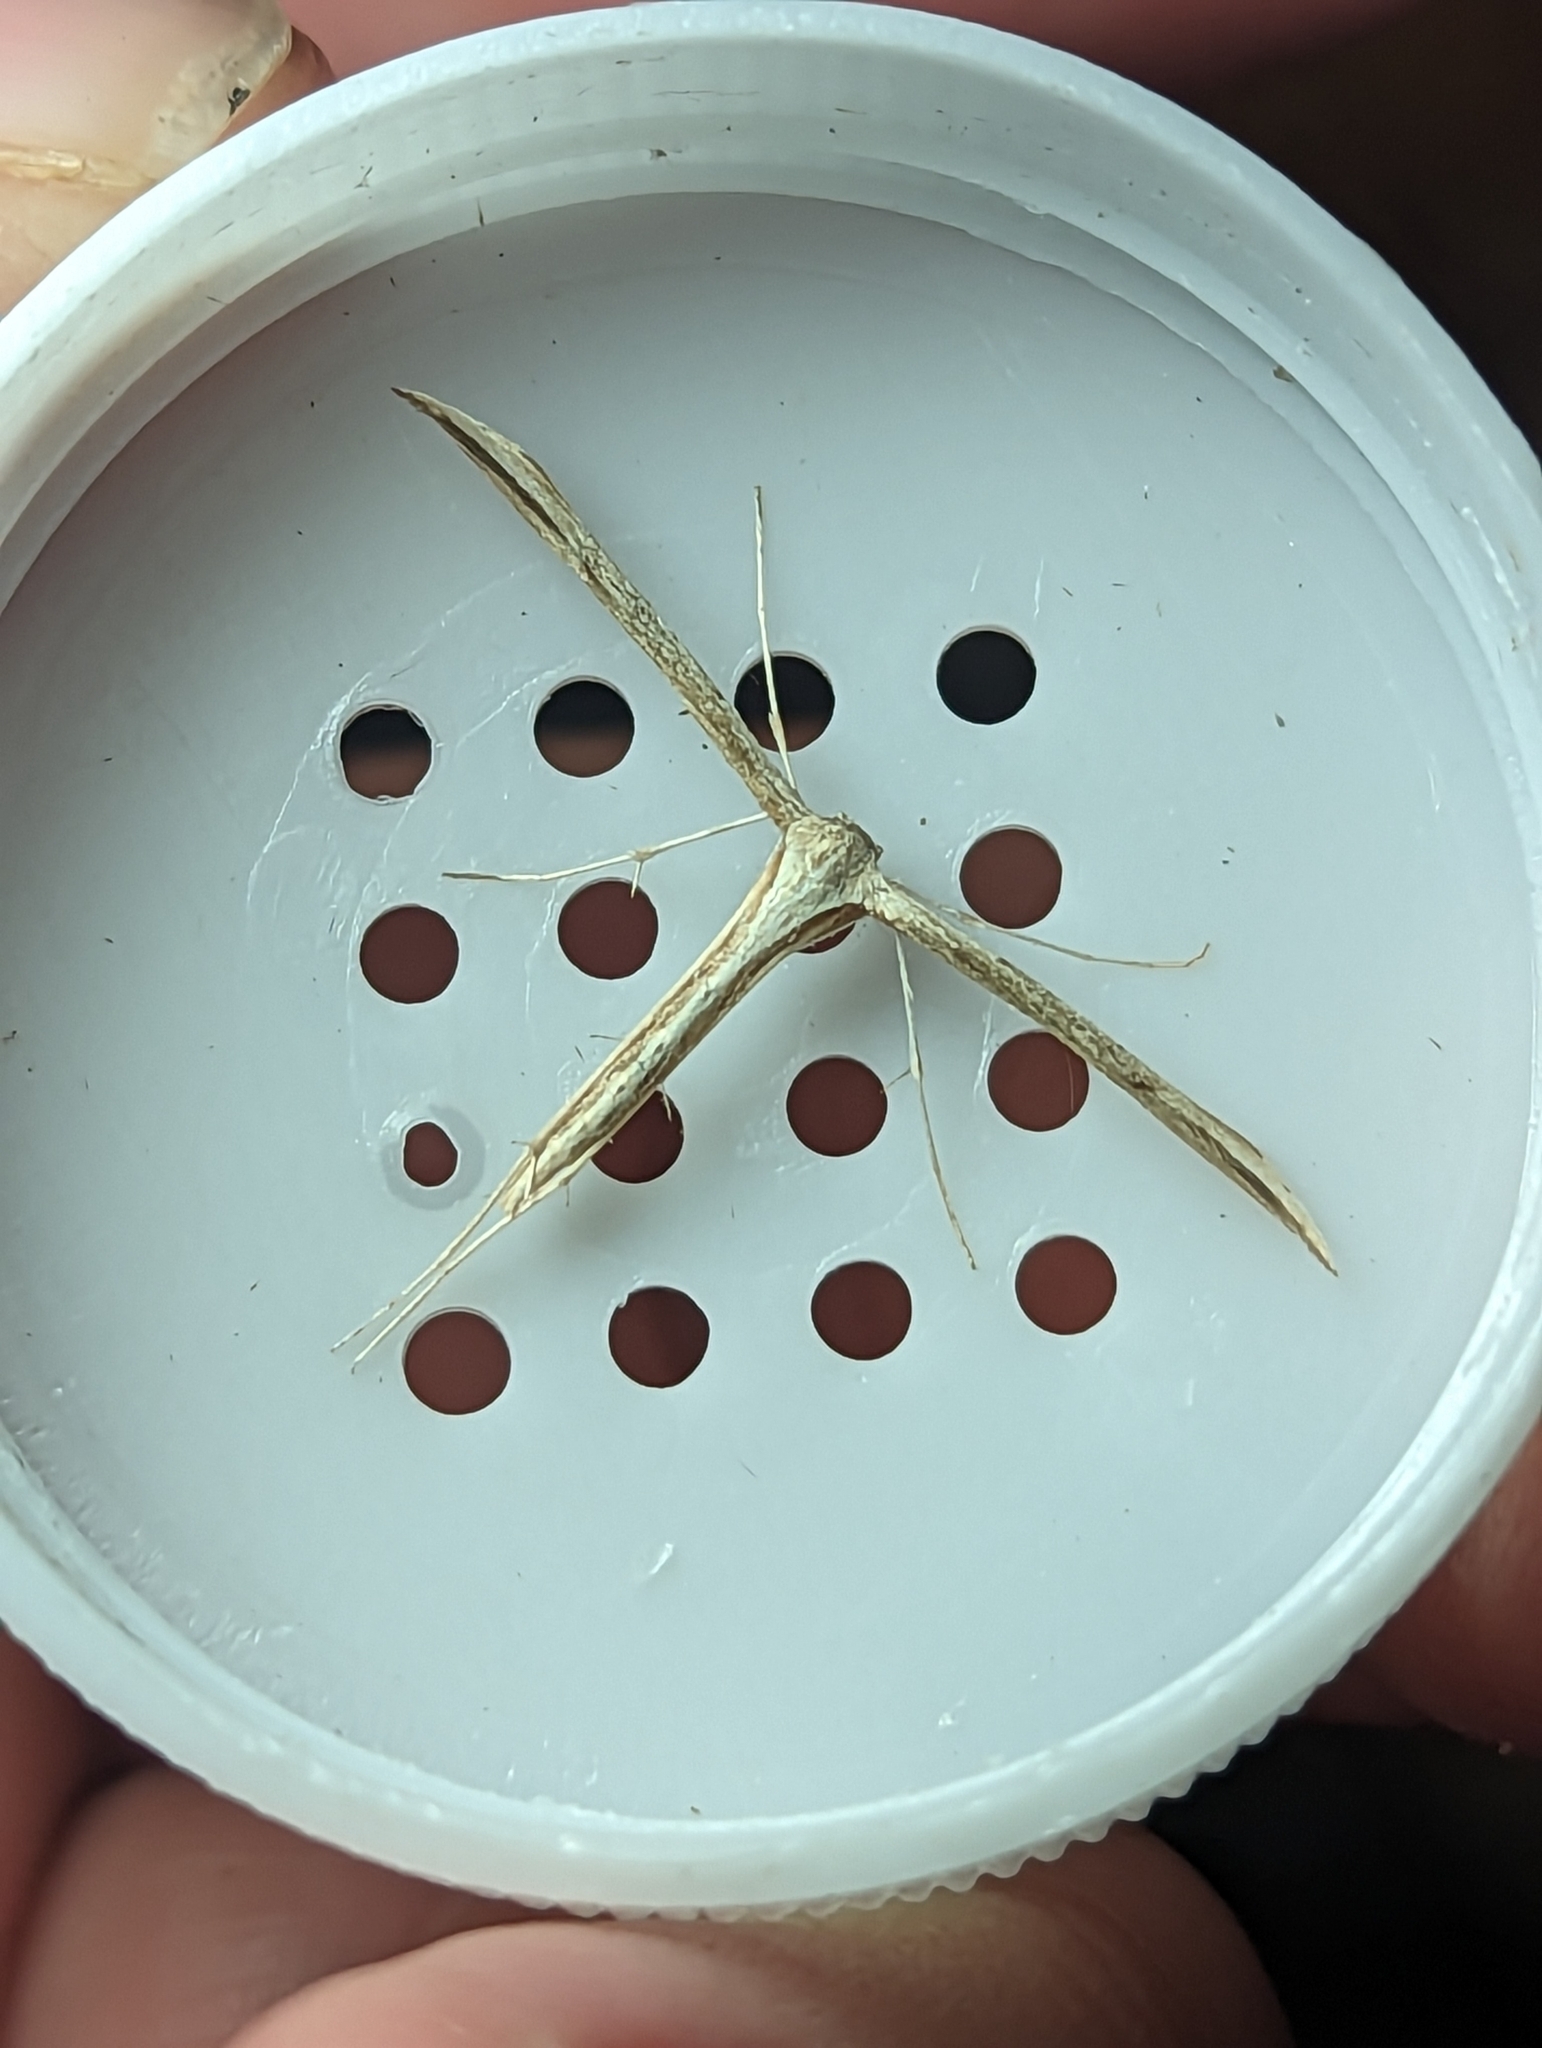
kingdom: Animalia
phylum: Arthropoda
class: Insecta
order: Lepidoptera
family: Pterophoridae
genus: Emmelina
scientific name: Emmelina monodactyla
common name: Common plume
